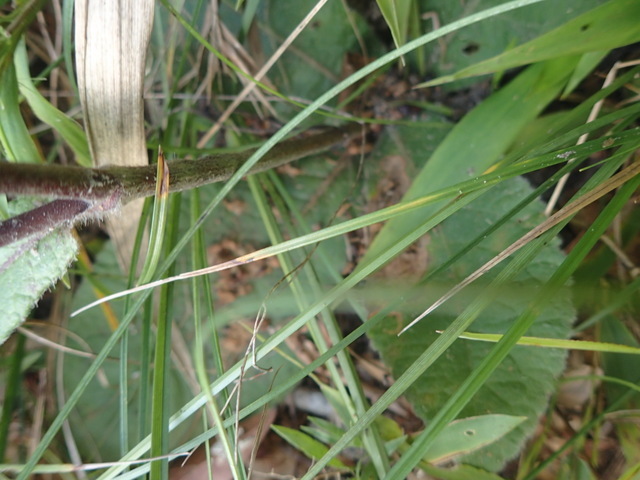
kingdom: Plantae
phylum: Tracheophyta
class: Magnoliopsida
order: Asterales
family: Asteraceae
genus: Elephantopus
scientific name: Elephantopus tomentosus
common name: Tobacco-weed
